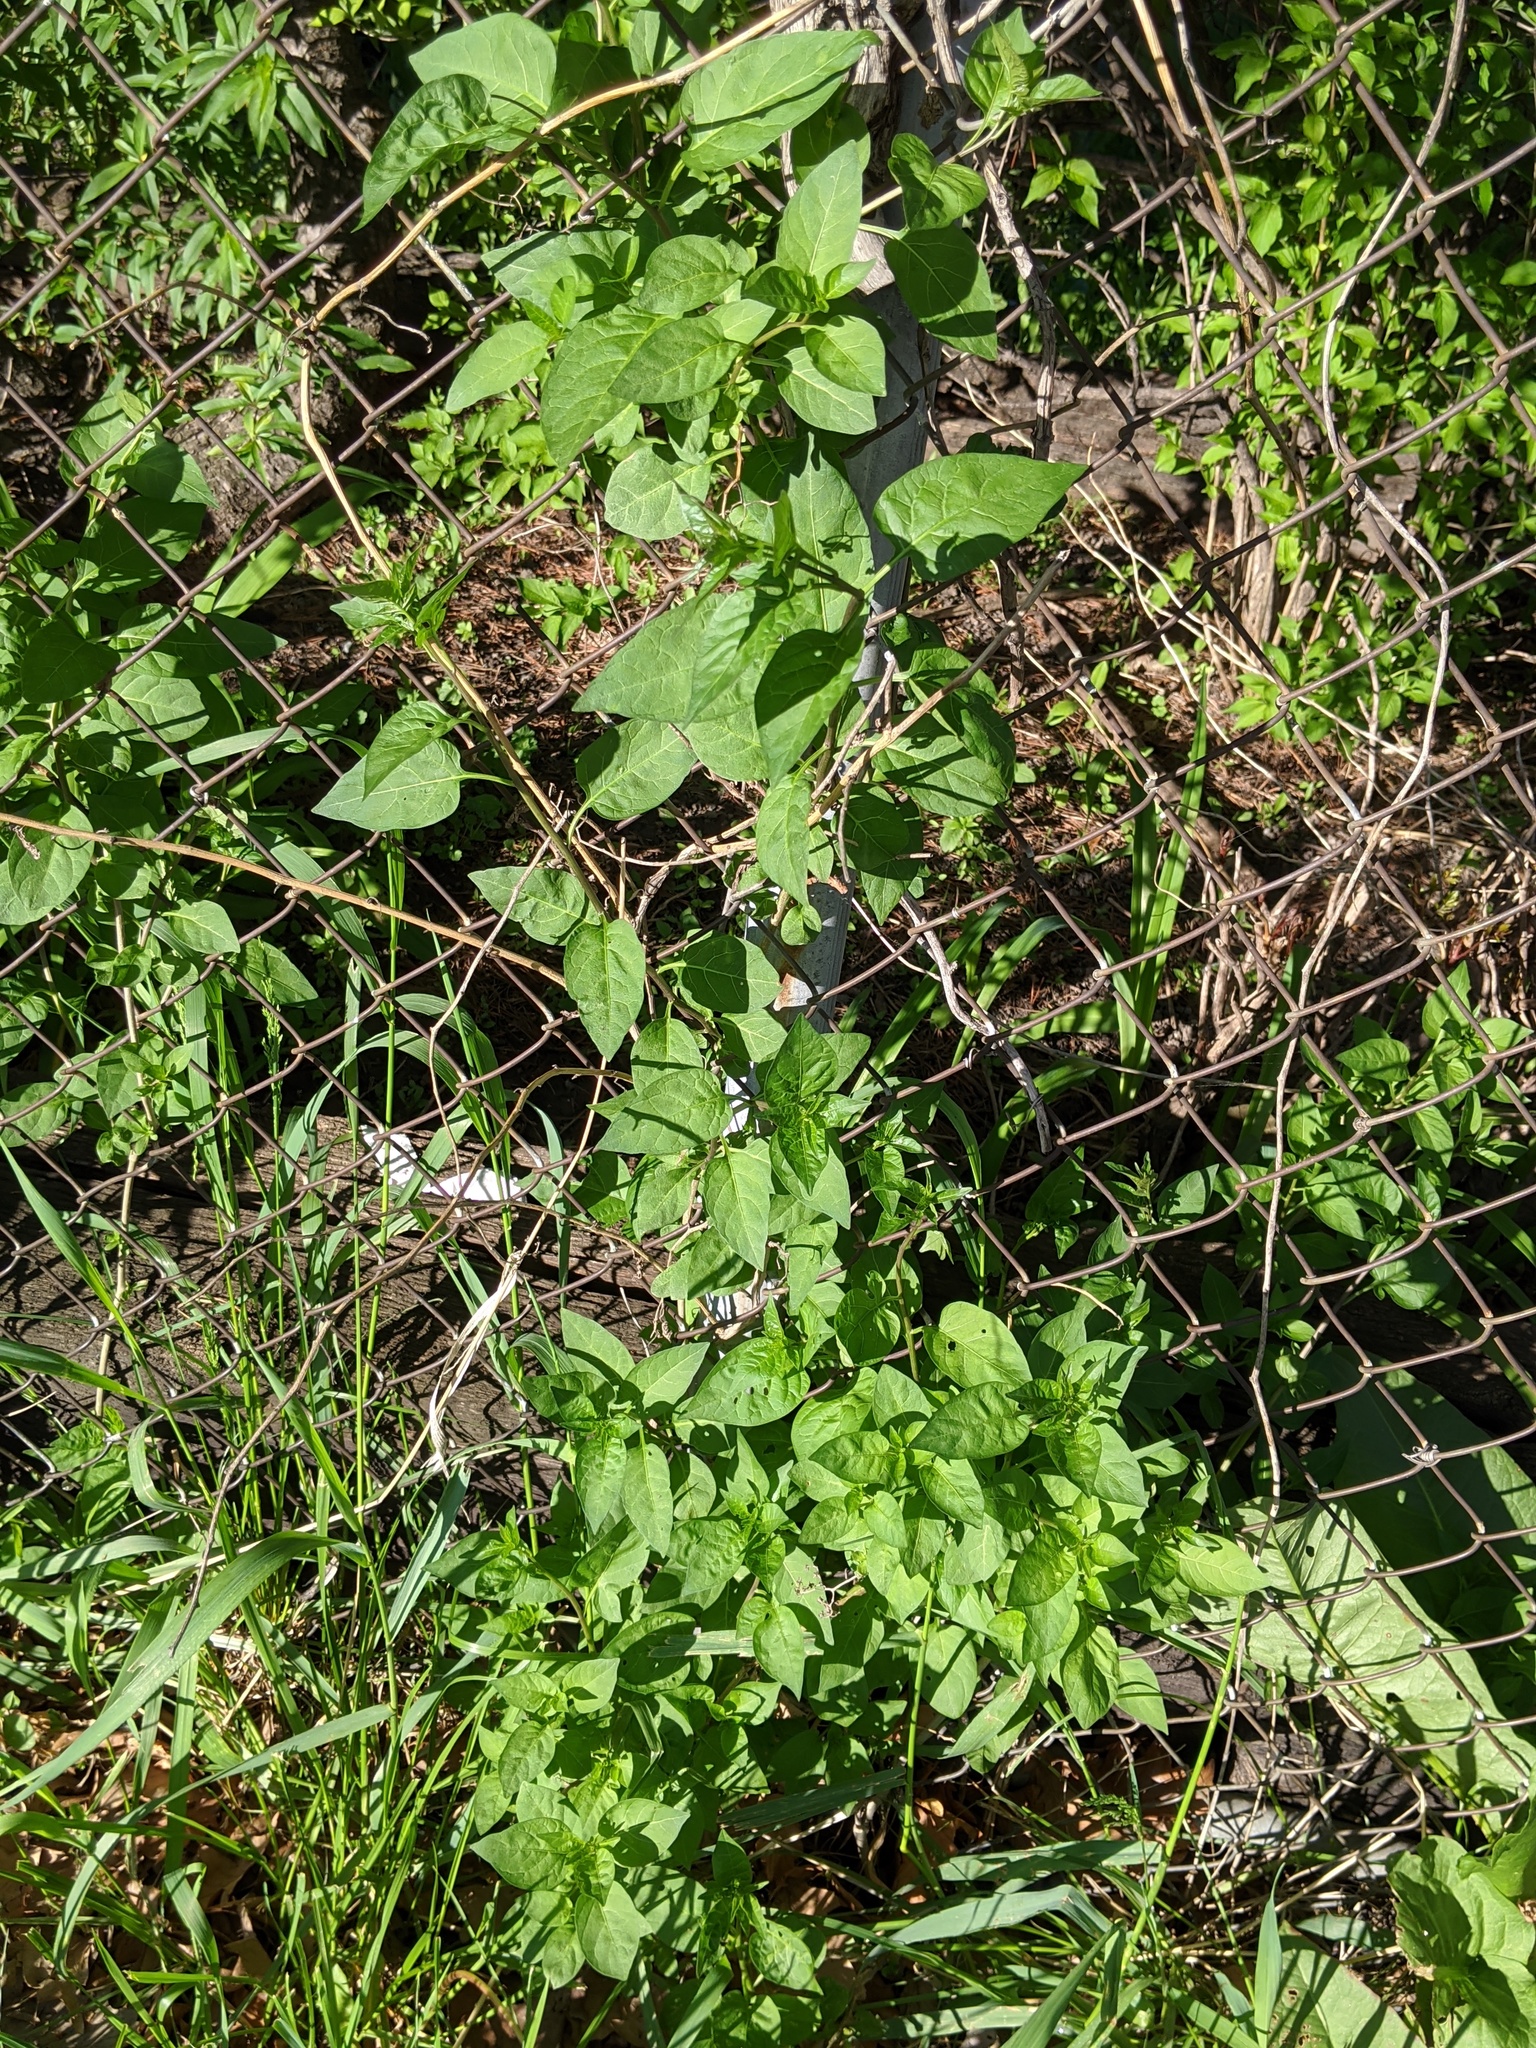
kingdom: Plantae
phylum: Tracheophyta
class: Magnoliopsida
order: Solanales
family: Solanaceae
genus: Solanum
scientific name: Solanum dulcamara
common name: Climbing nightshade
